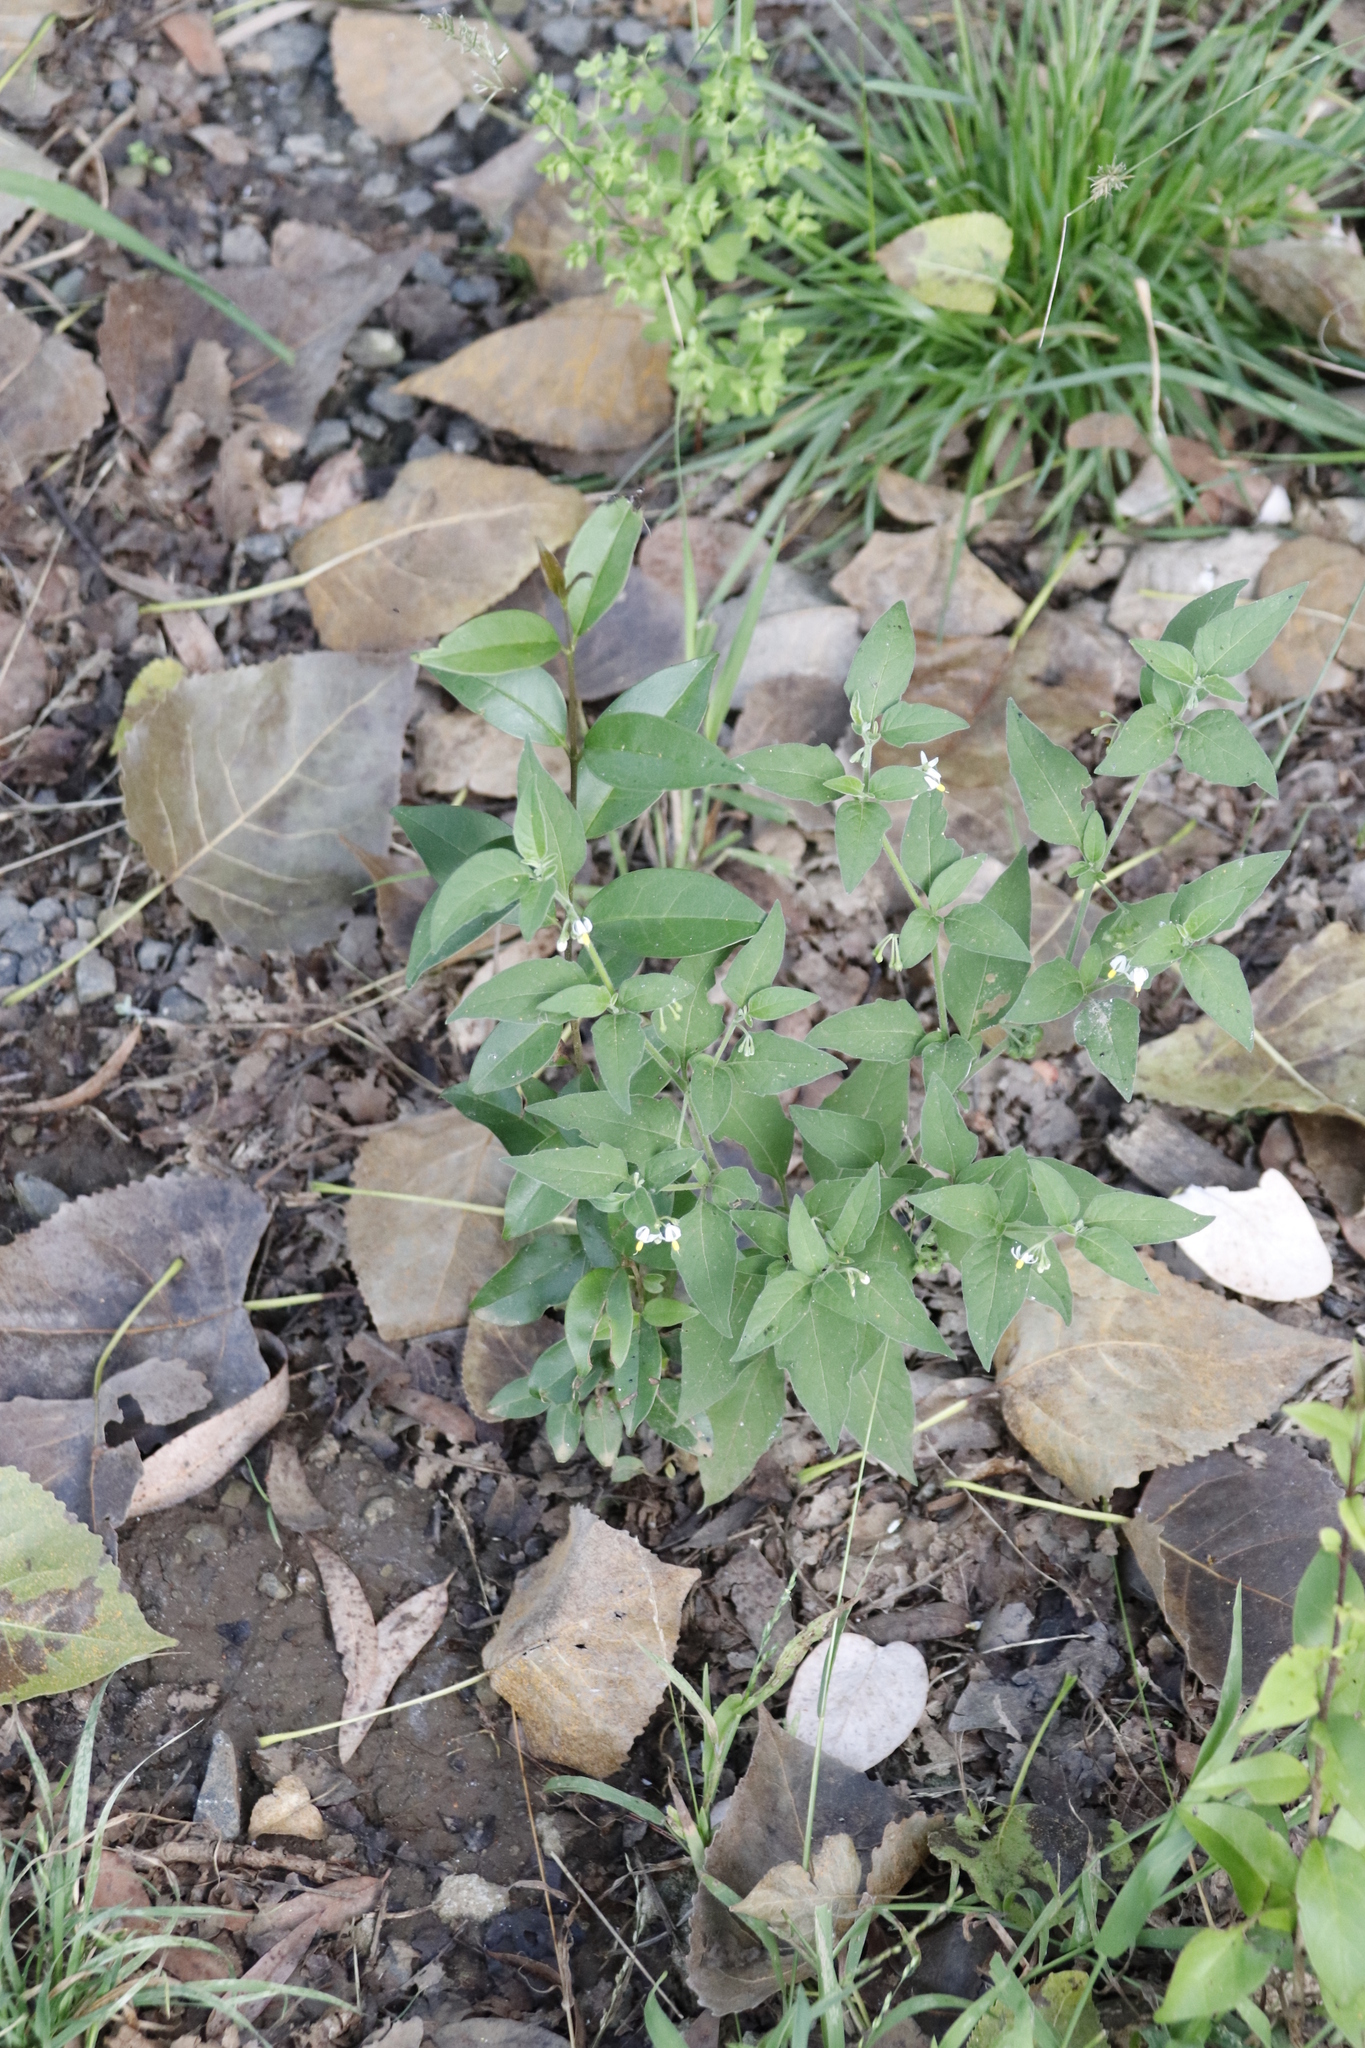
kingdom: Plantae
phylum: Tracheophyta
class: Magnoliopsida
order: Solanales
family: Solanaceae
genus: Solanum
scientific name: Solanum chenopodioides
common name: Tall nightshade
